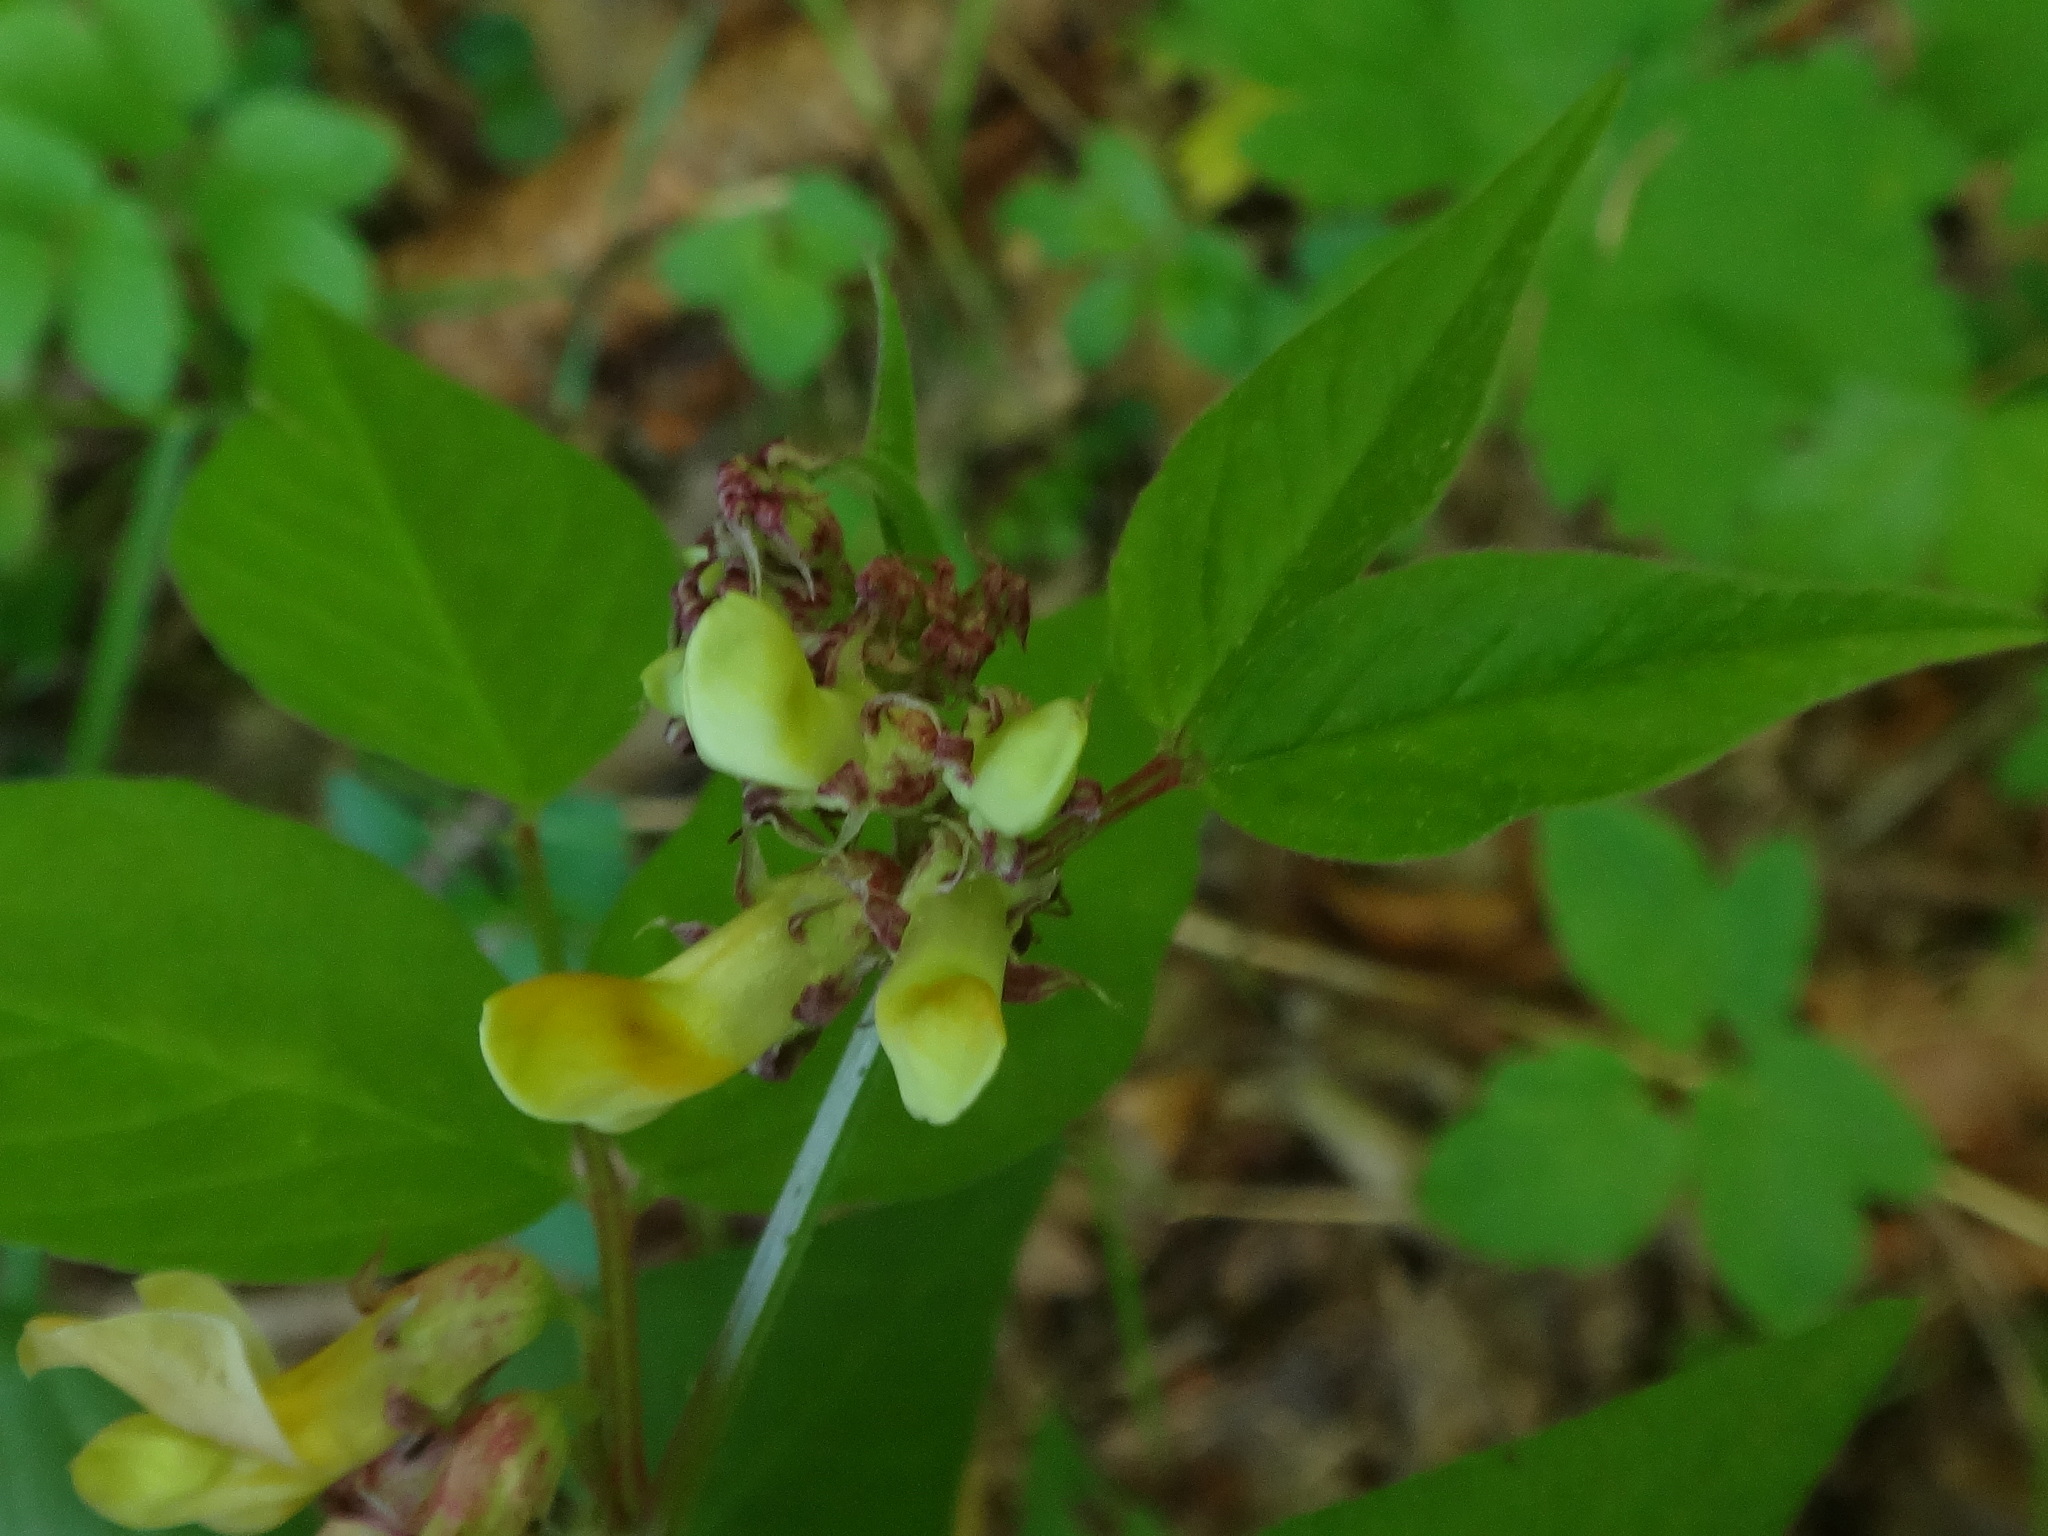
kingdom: Plantae
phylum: Tracheophyta
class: Magnoliopsida
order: Fabales
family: Fabaceae
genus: Vicia
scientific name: Vicia oroboides
